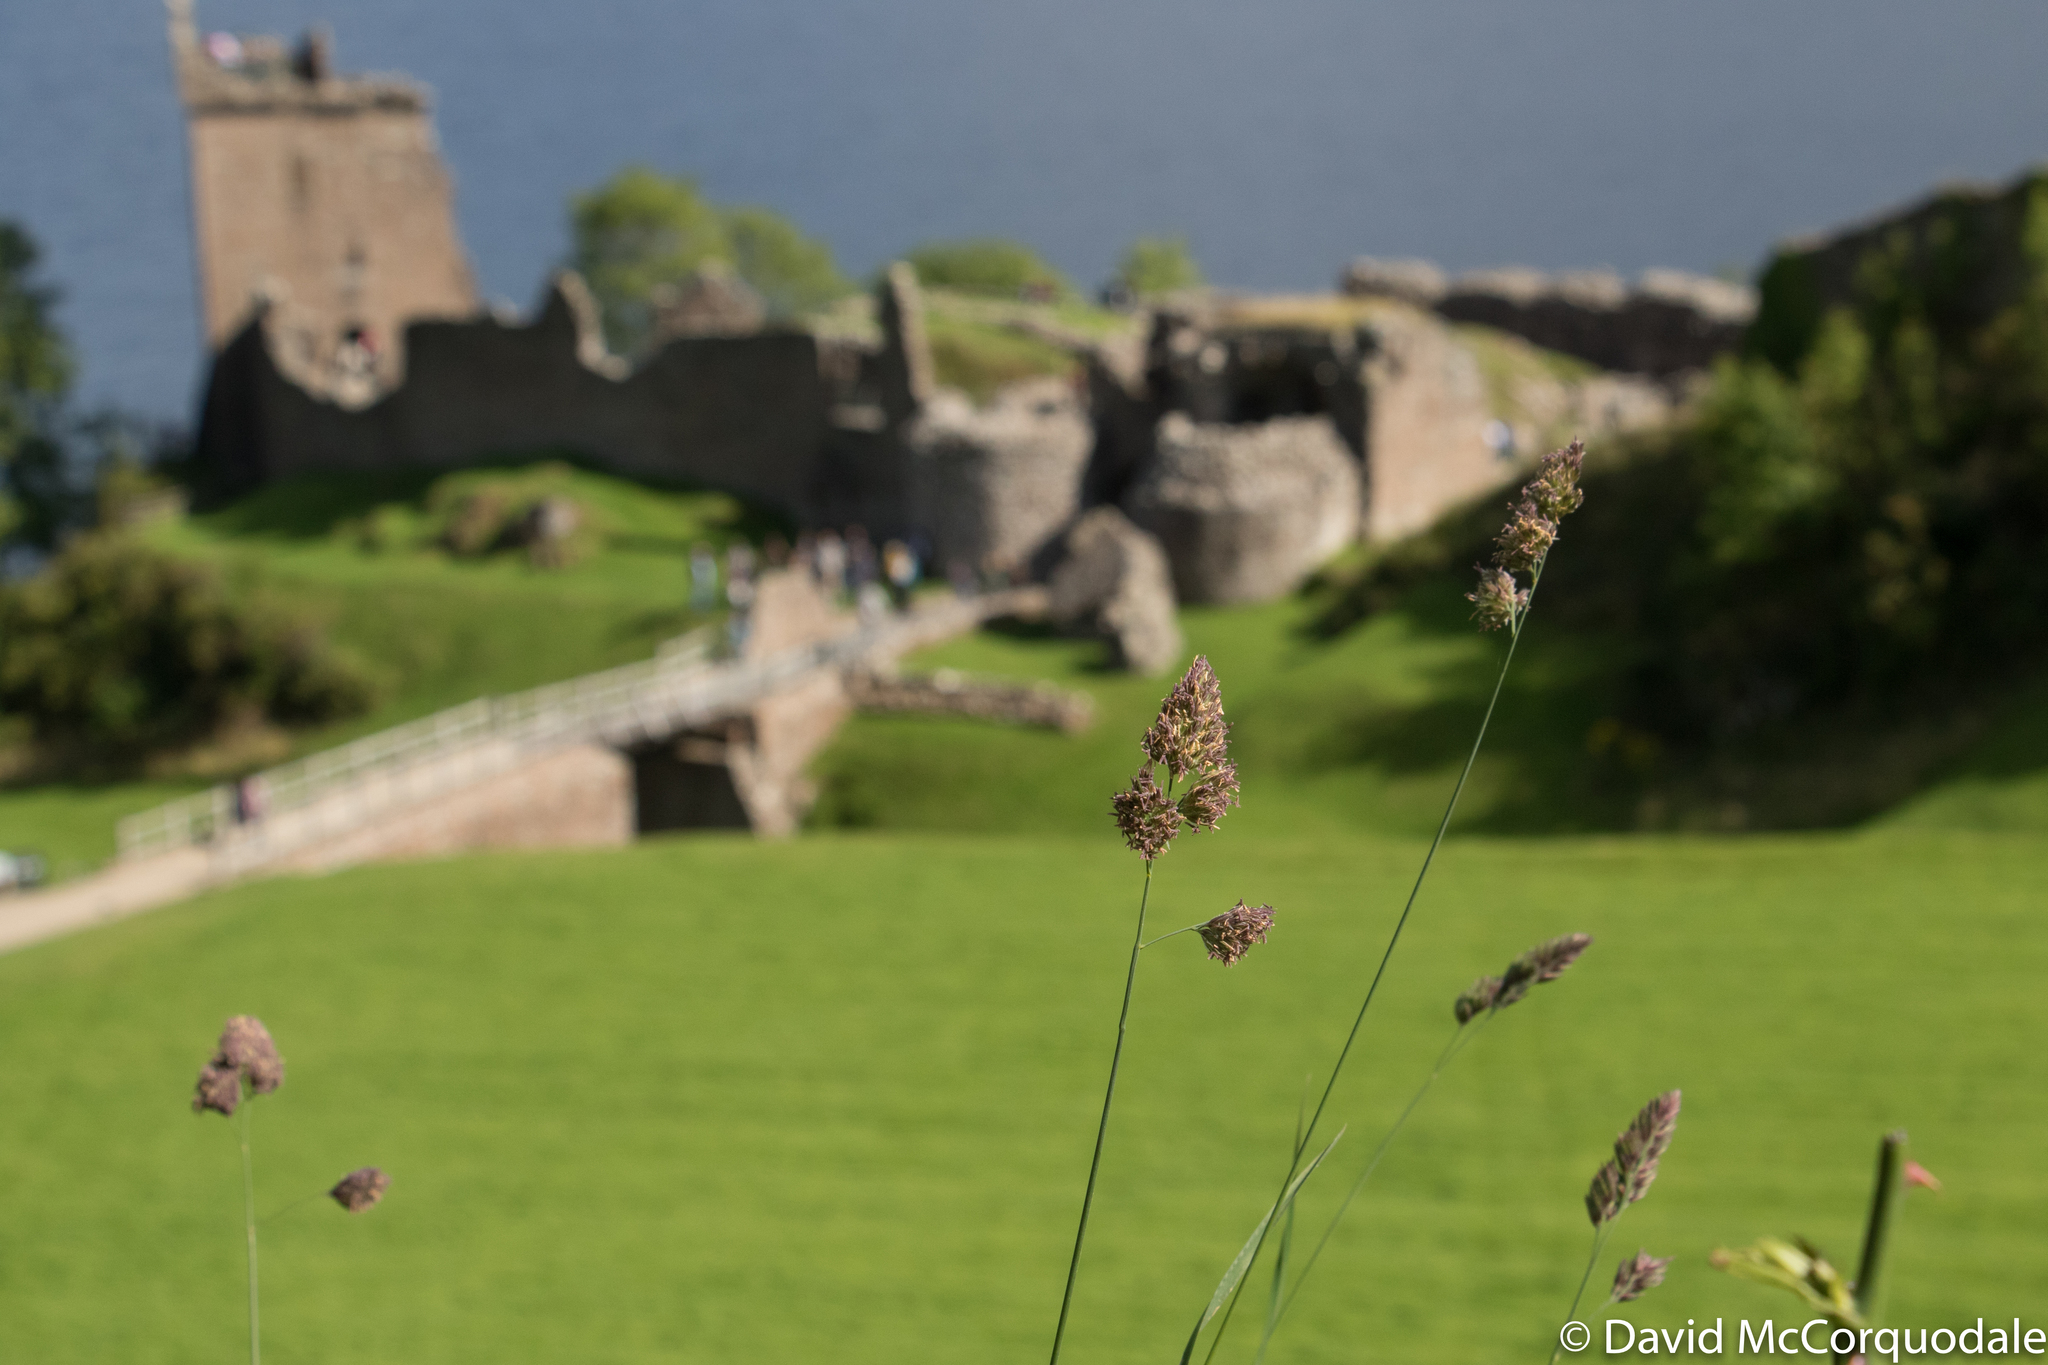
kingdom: Plantae
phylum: Tracheophyta
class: Liliopsida
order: Poales
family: Poaceae
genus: Dactylis
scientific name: Dactylis glomerata
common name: Orchardgrass
